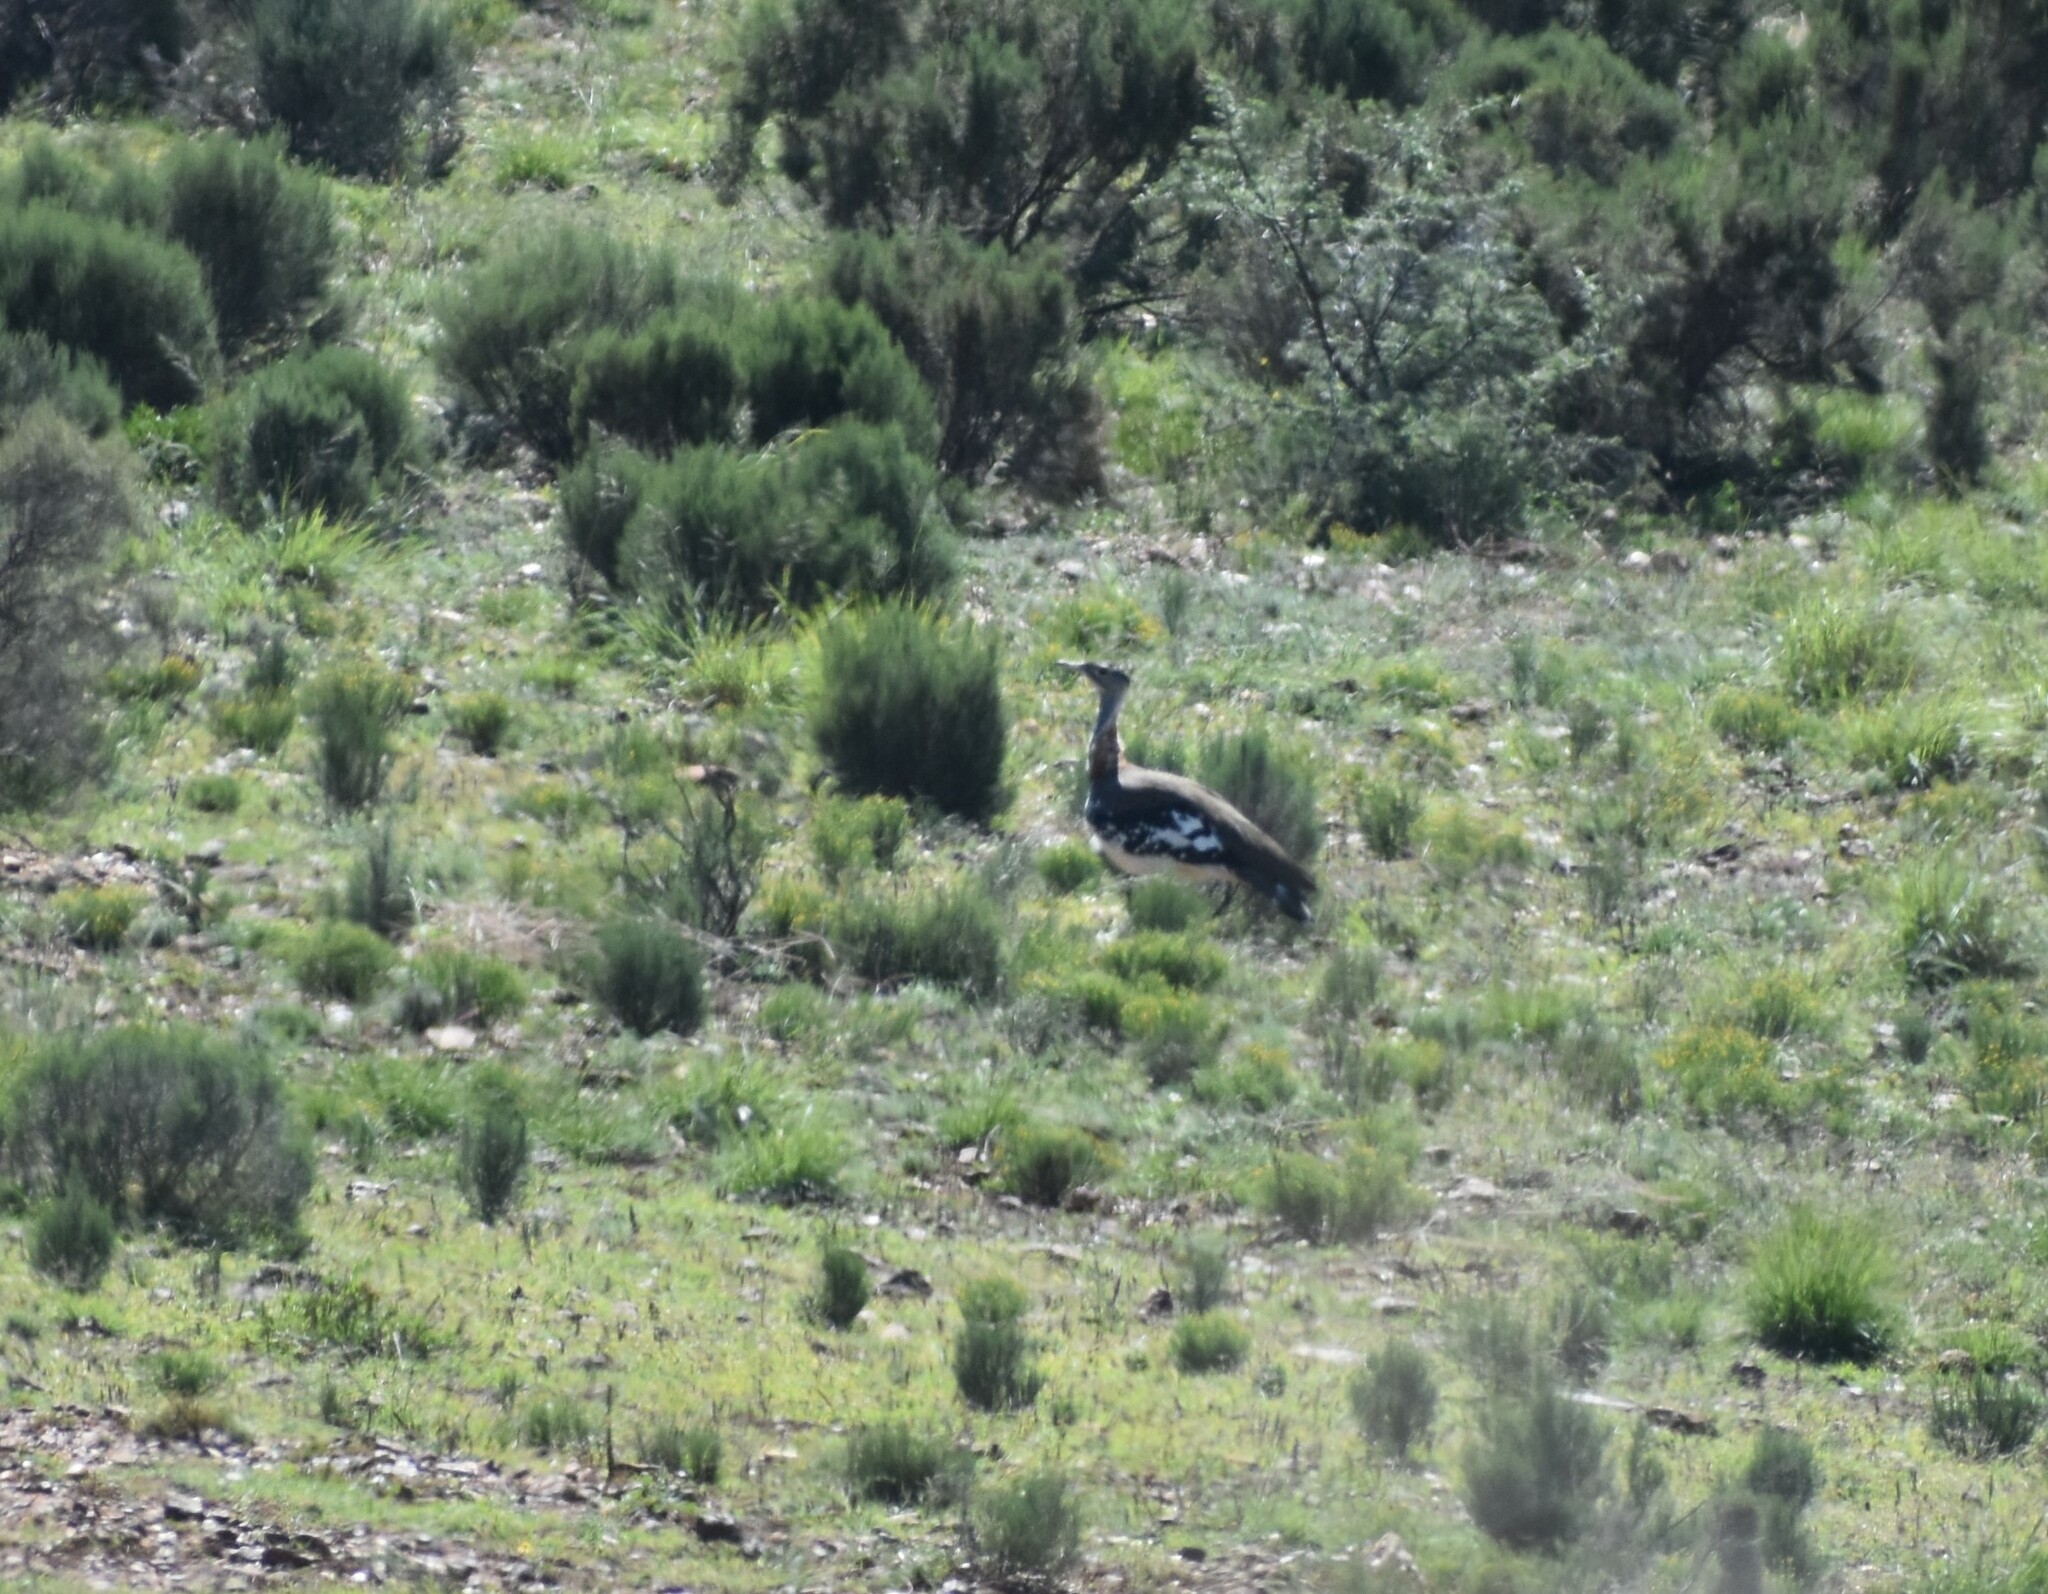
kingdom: Animalia
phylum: Chordata
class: Aves
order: Otidiformes
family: Otididae
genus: Neotis
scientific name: Neotis denhami
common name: Denham's bustard
